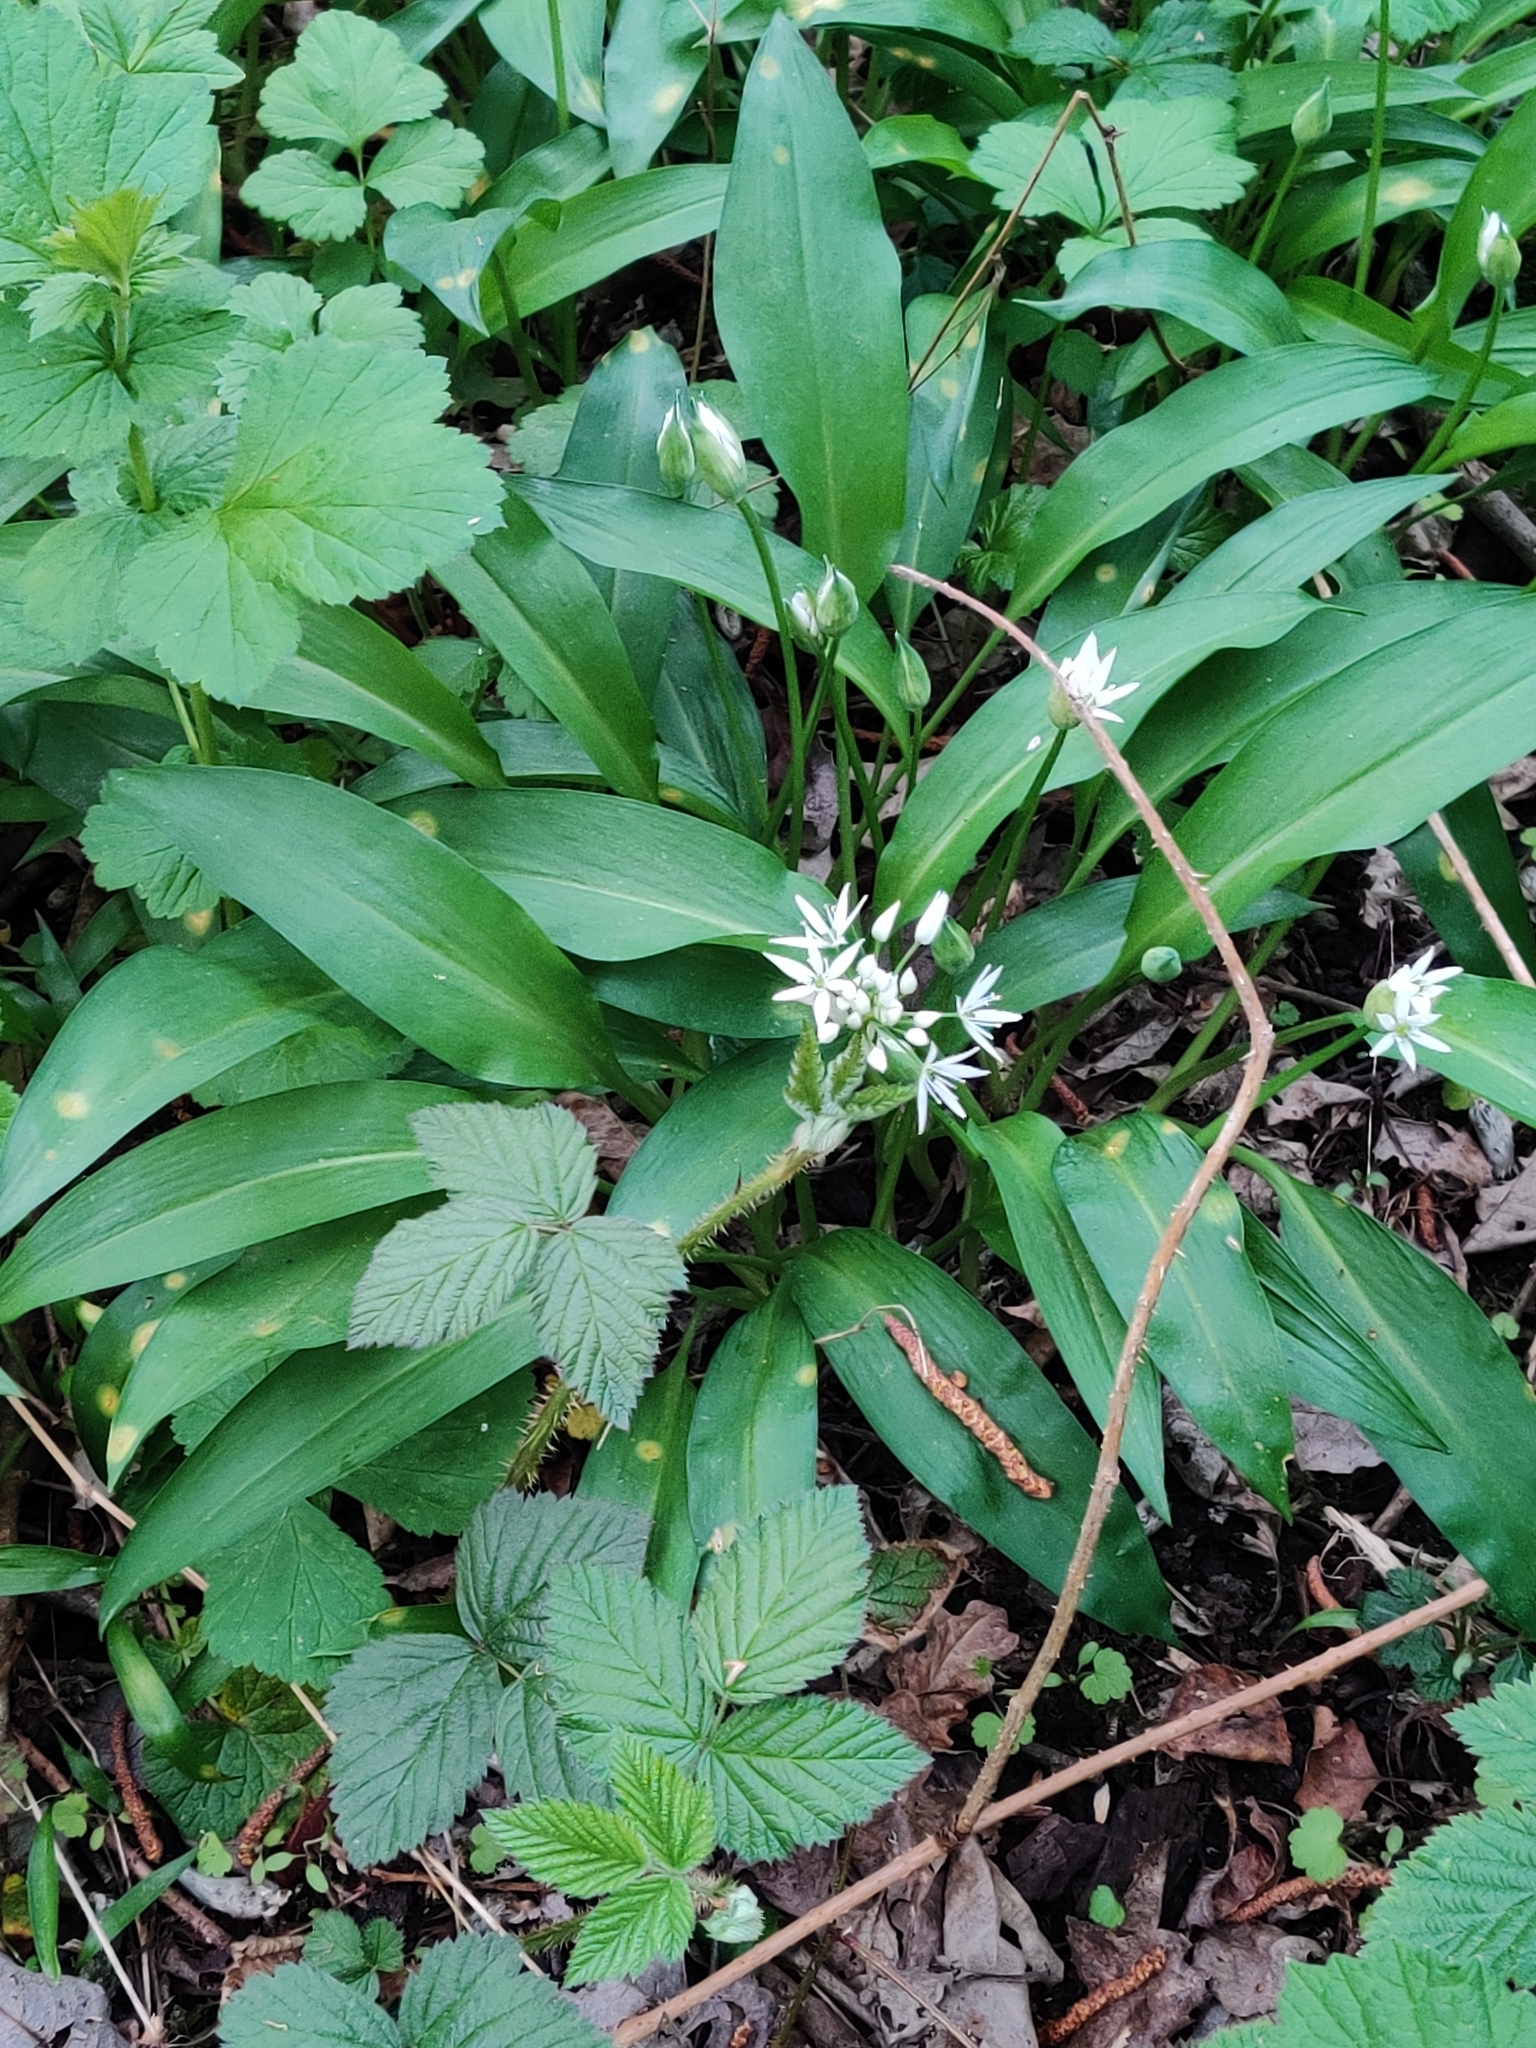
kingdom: Plantae
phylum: Tracheophyta
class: Liliopsida
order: Asparagales
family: Amaryllidaceae
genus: Allium
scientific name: Allium ursinum
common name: Ramsons
